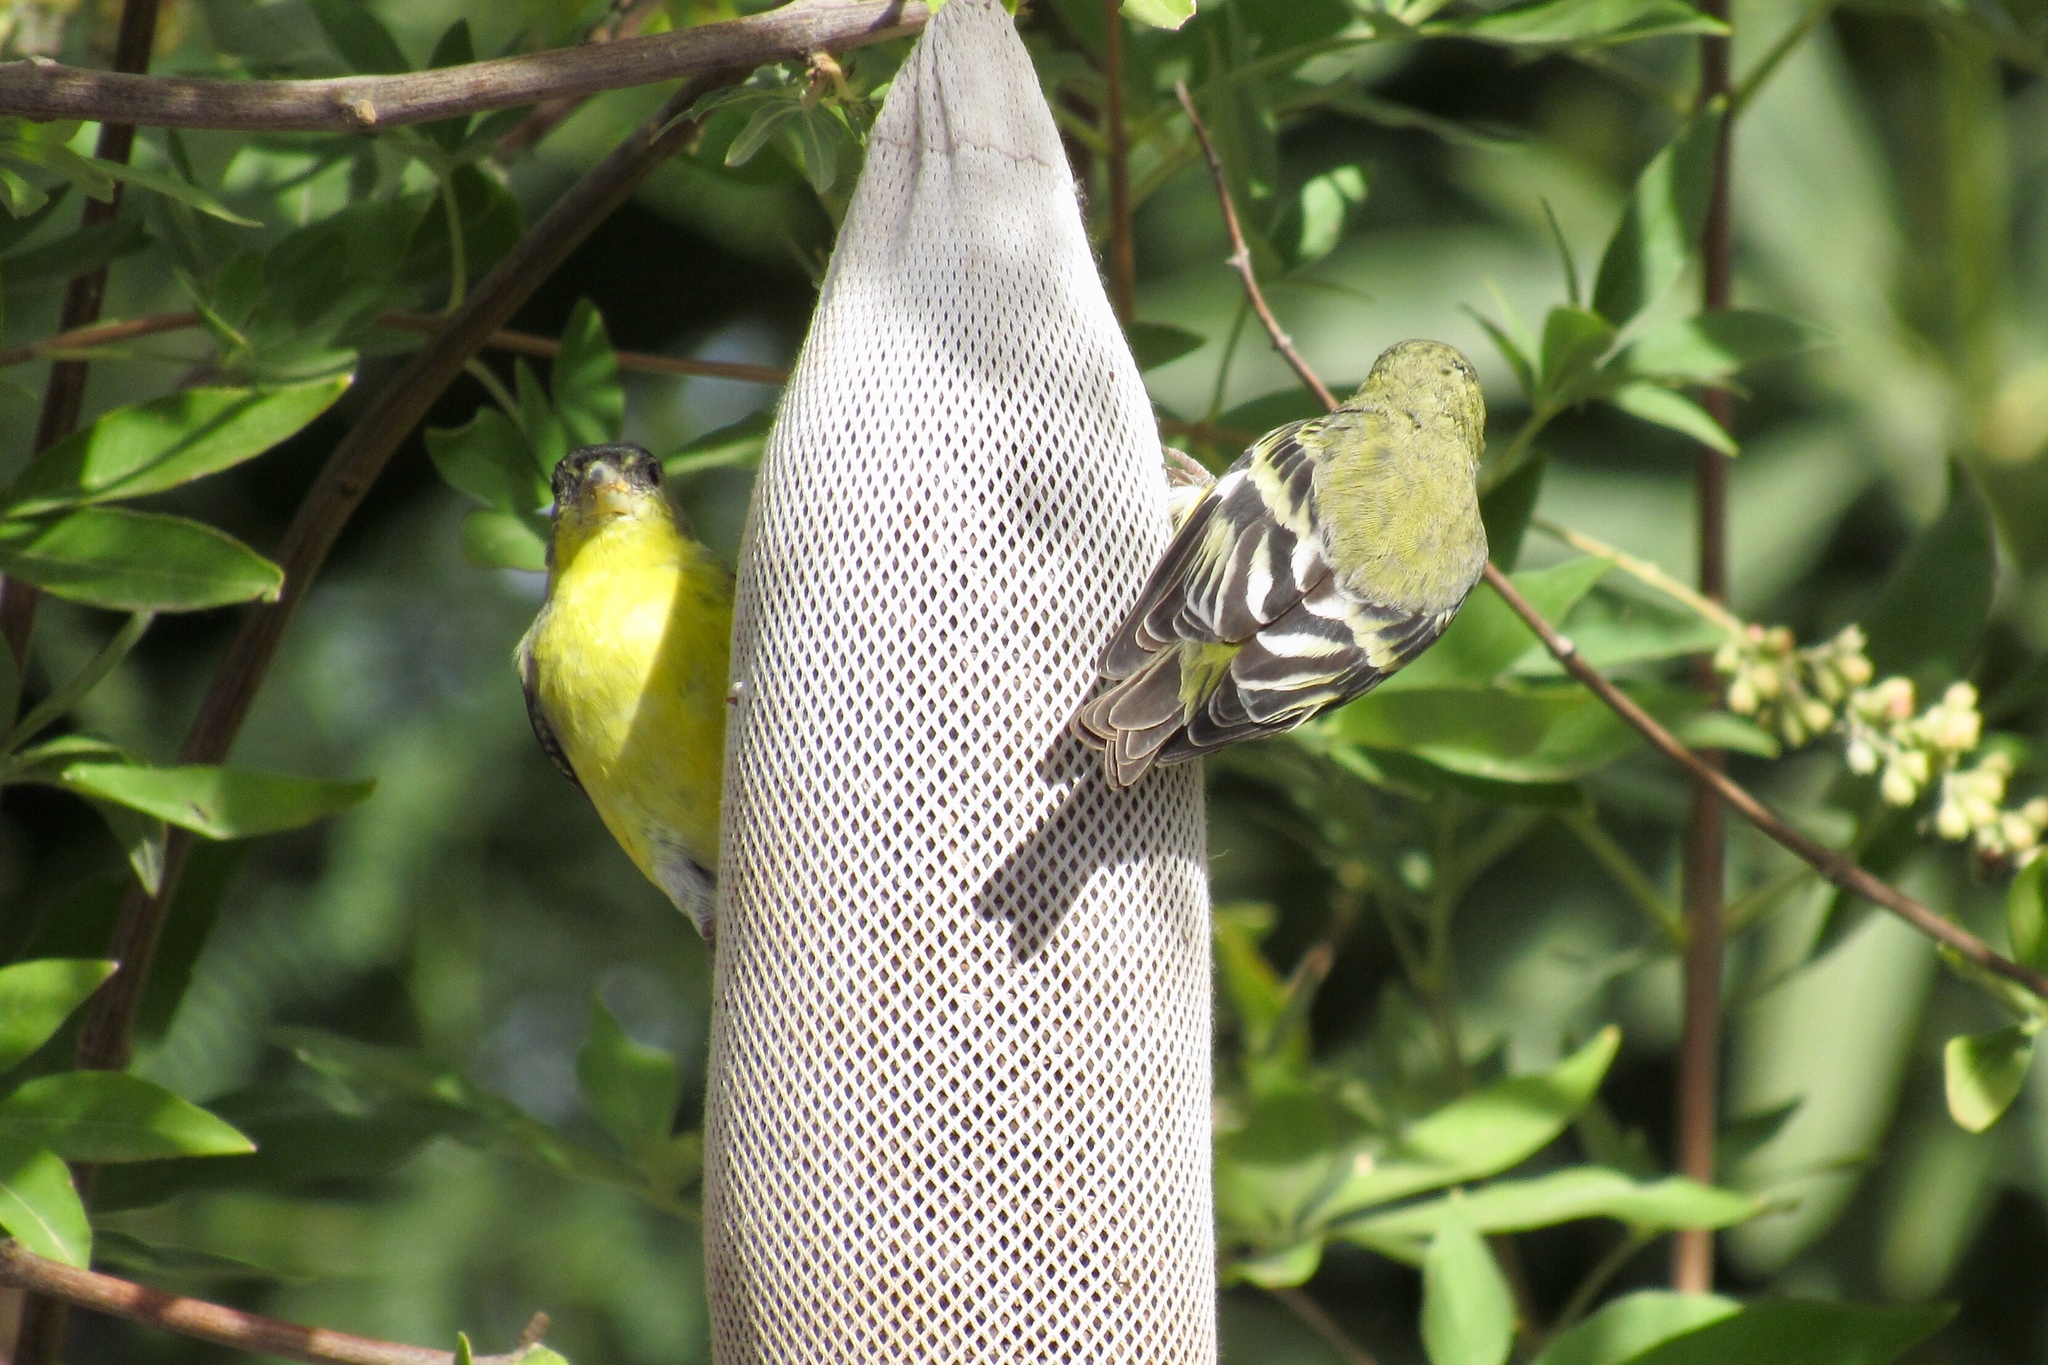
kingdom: Animalia
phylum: Chordata
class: Aves
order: Passeriformes
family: Fringillidae
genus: Spinus
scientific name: Spinus psaltria
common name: Lesser goldfinch
